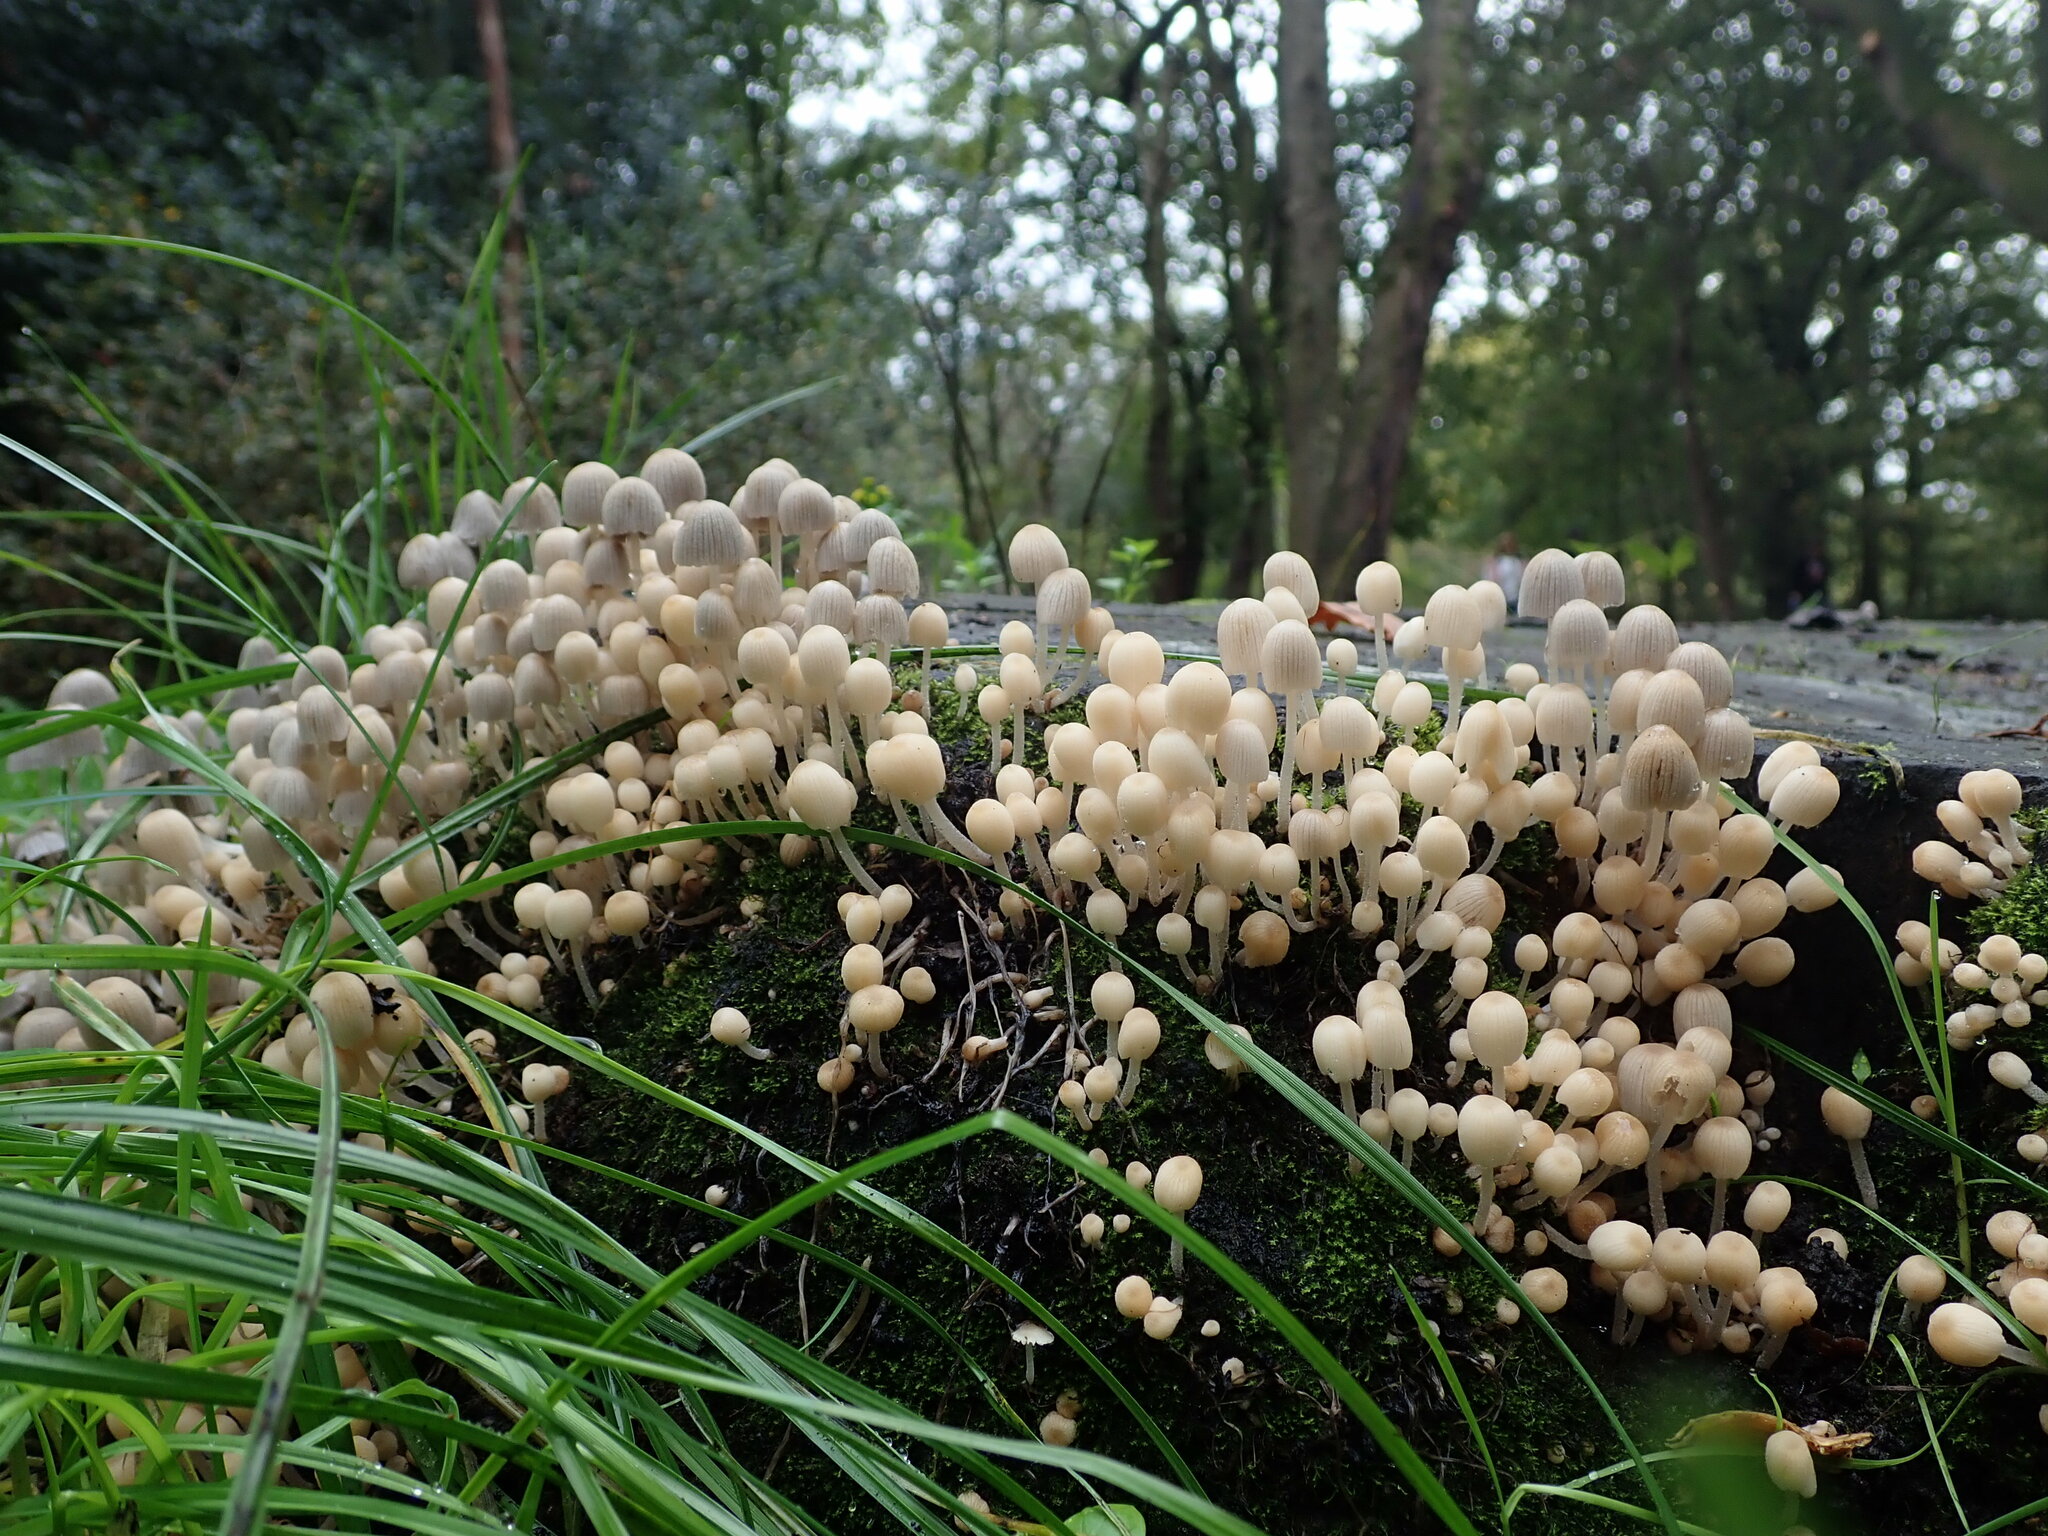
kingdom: Fungi
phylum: Basidiomycota
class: Agaricomycetes
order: Agaricales
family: Psathyrellaceae
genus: Coprinellus
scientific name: Coprinellus disseminatus
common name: Fairies' bonnets
